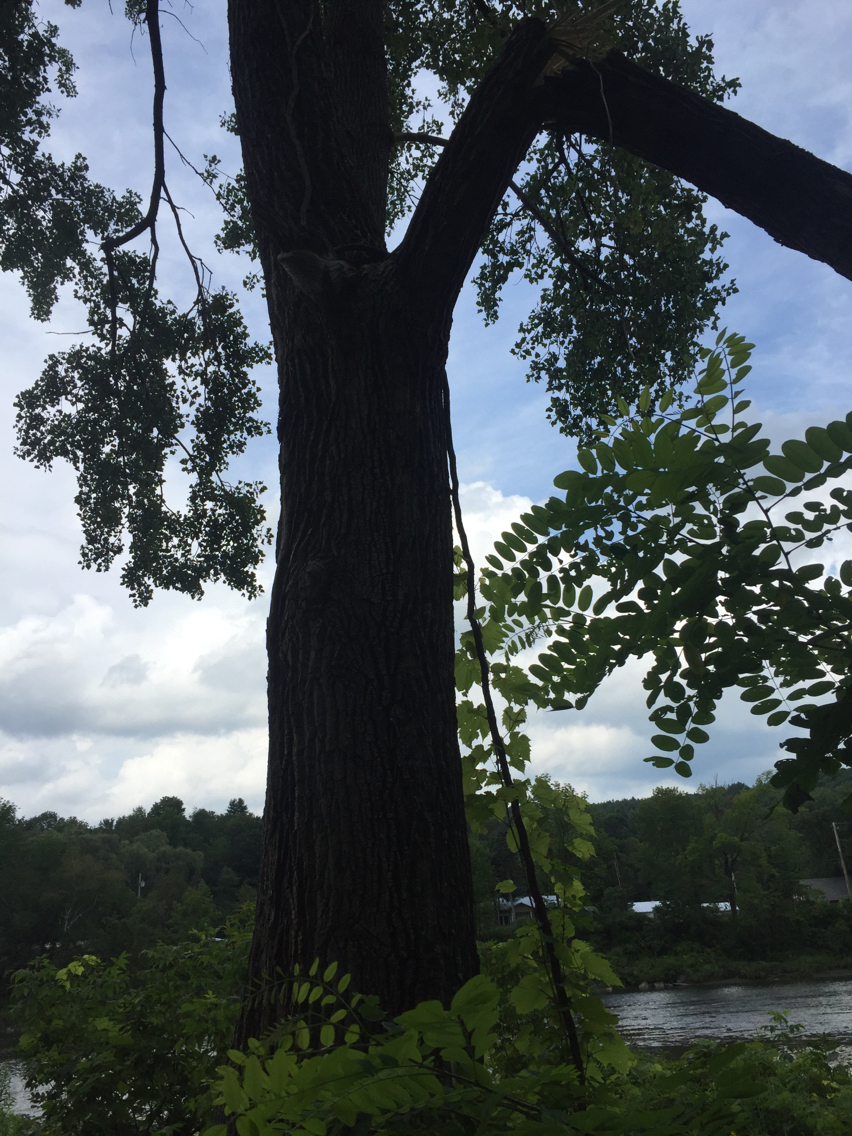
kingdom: Plantae
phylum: Tracheophyta
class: Magnoliopsida
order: Fabales
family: Fabaceae
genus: Robinia
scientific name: Robinia pseudoacacia
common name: Black locust
